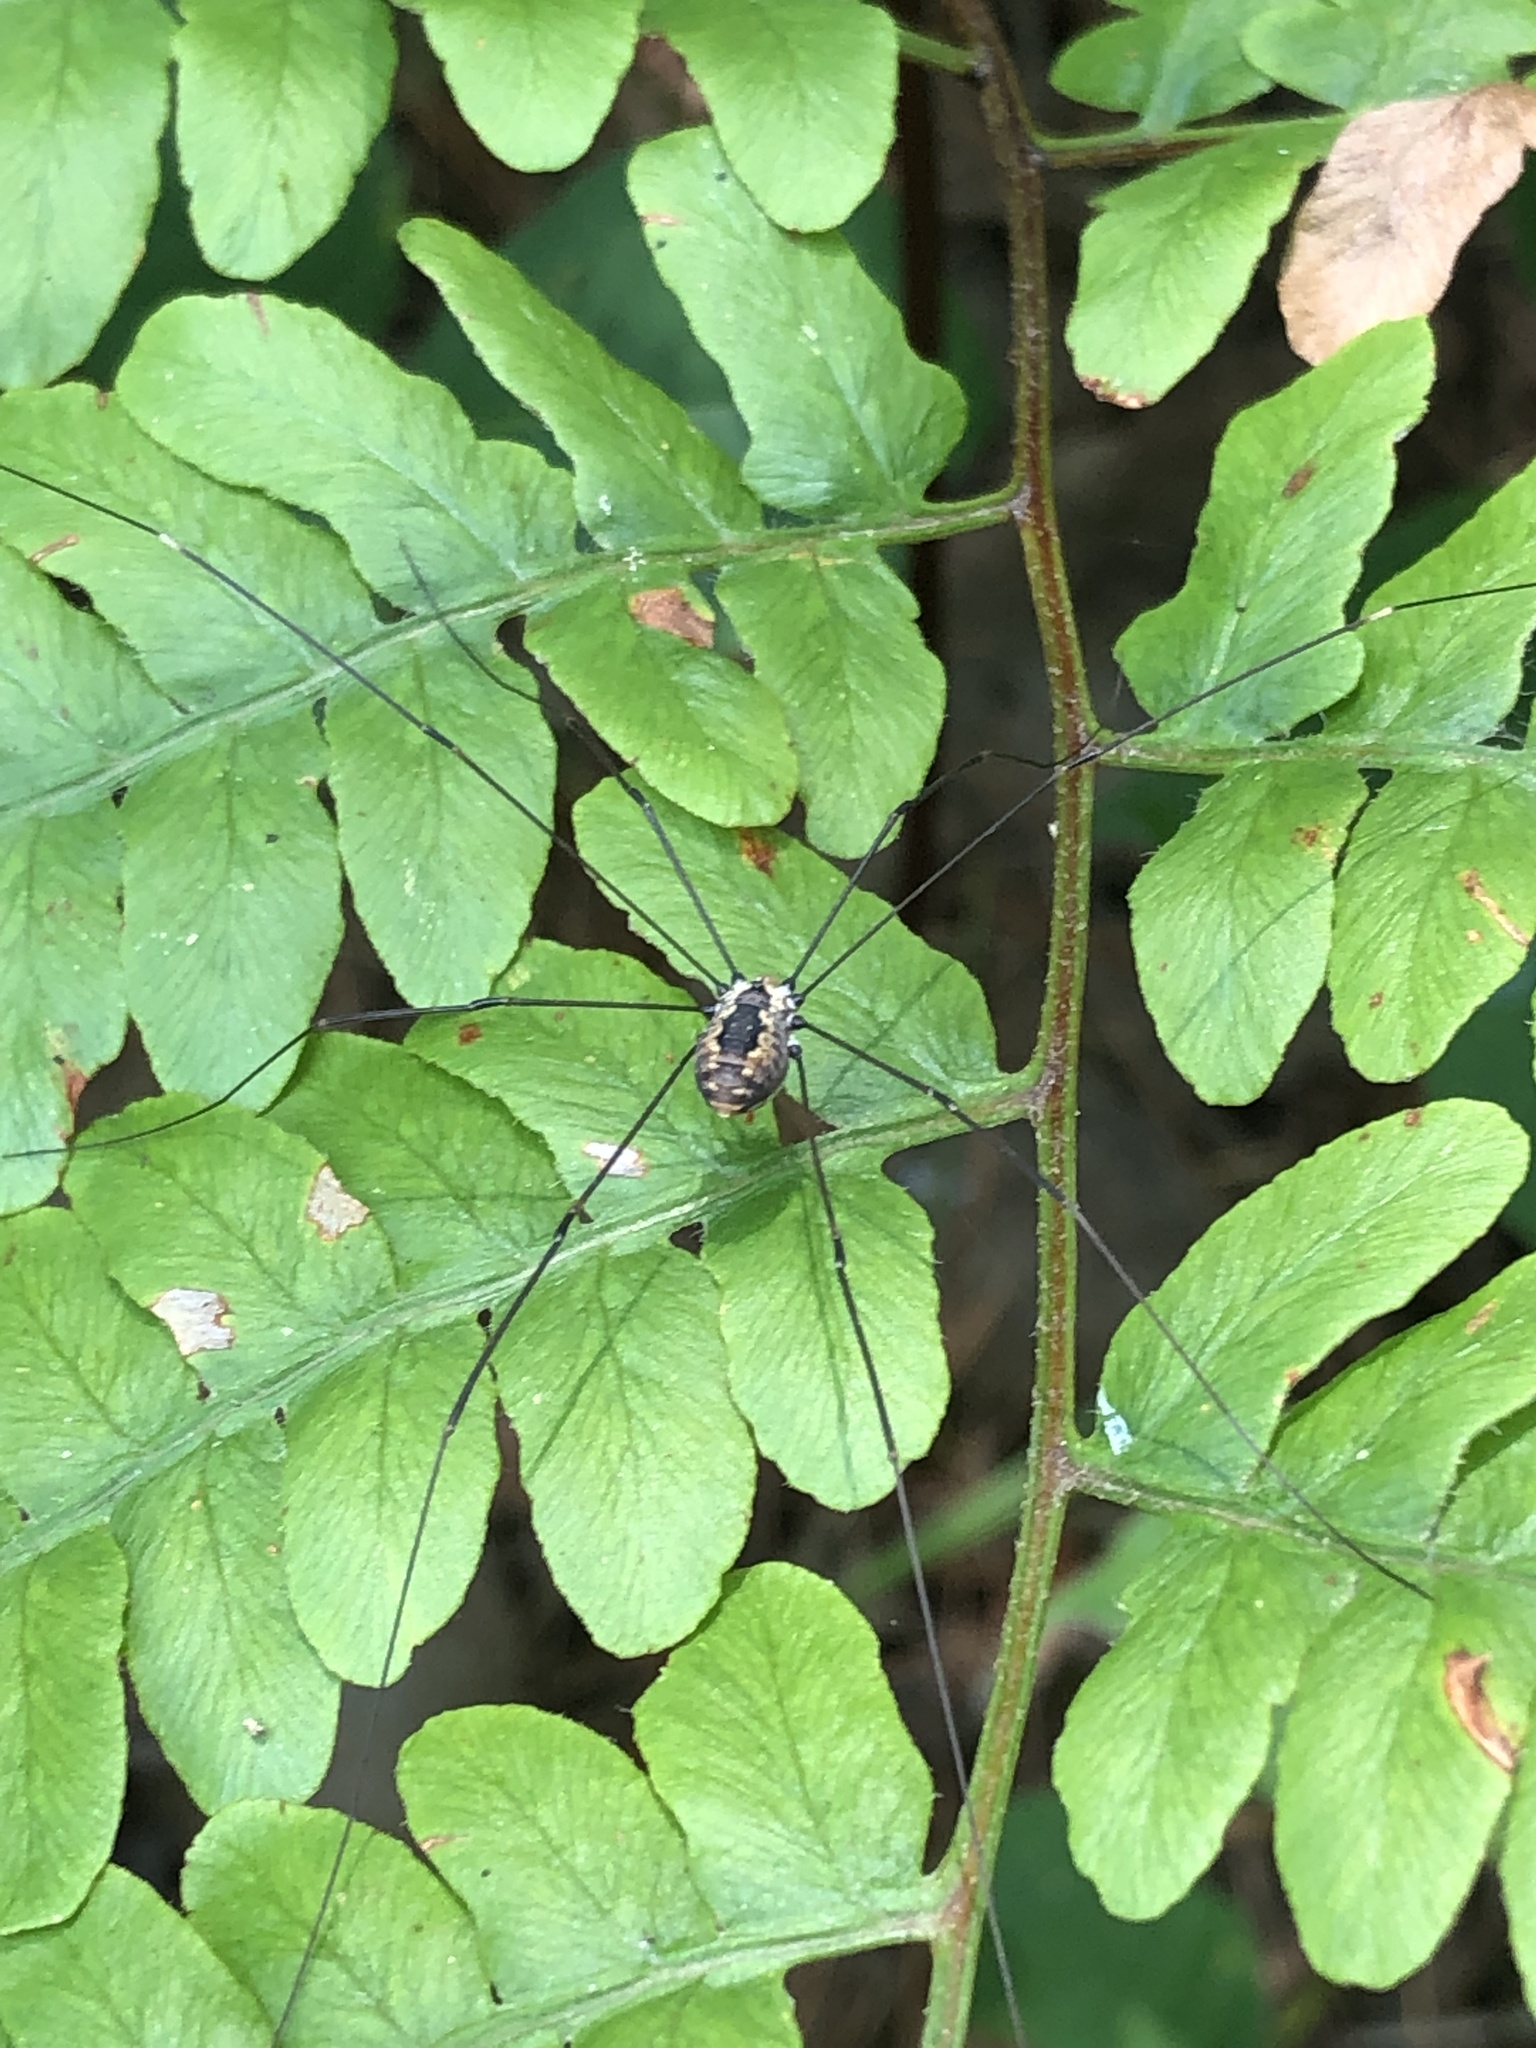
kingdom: Animalia
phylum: Arthropoda
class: Arachnida
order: Opiliones
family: Sclerosomatidae
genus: Leiobunum
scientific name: Leiobunum aldrichi
